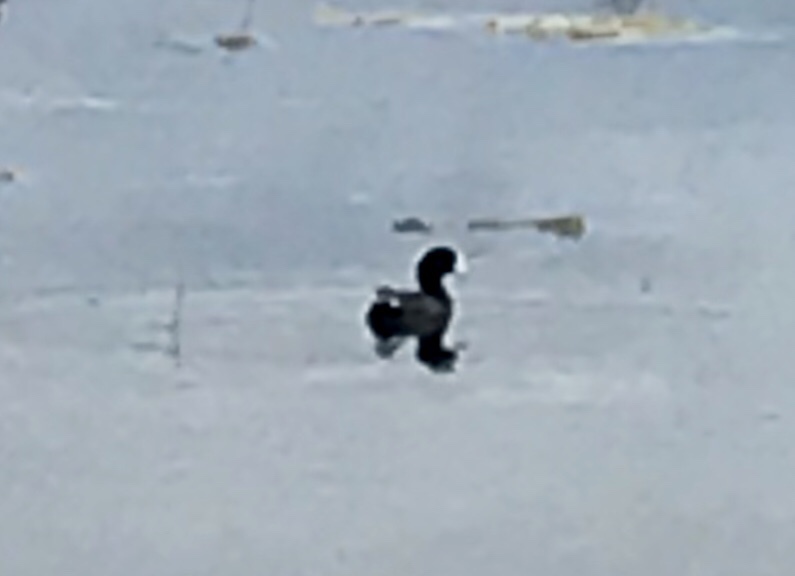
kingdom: Animalia
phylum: Chordata
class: Aves
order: Gruiformes
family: Rallidae
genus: Fulica
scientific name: Fulica americana
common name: American coot
